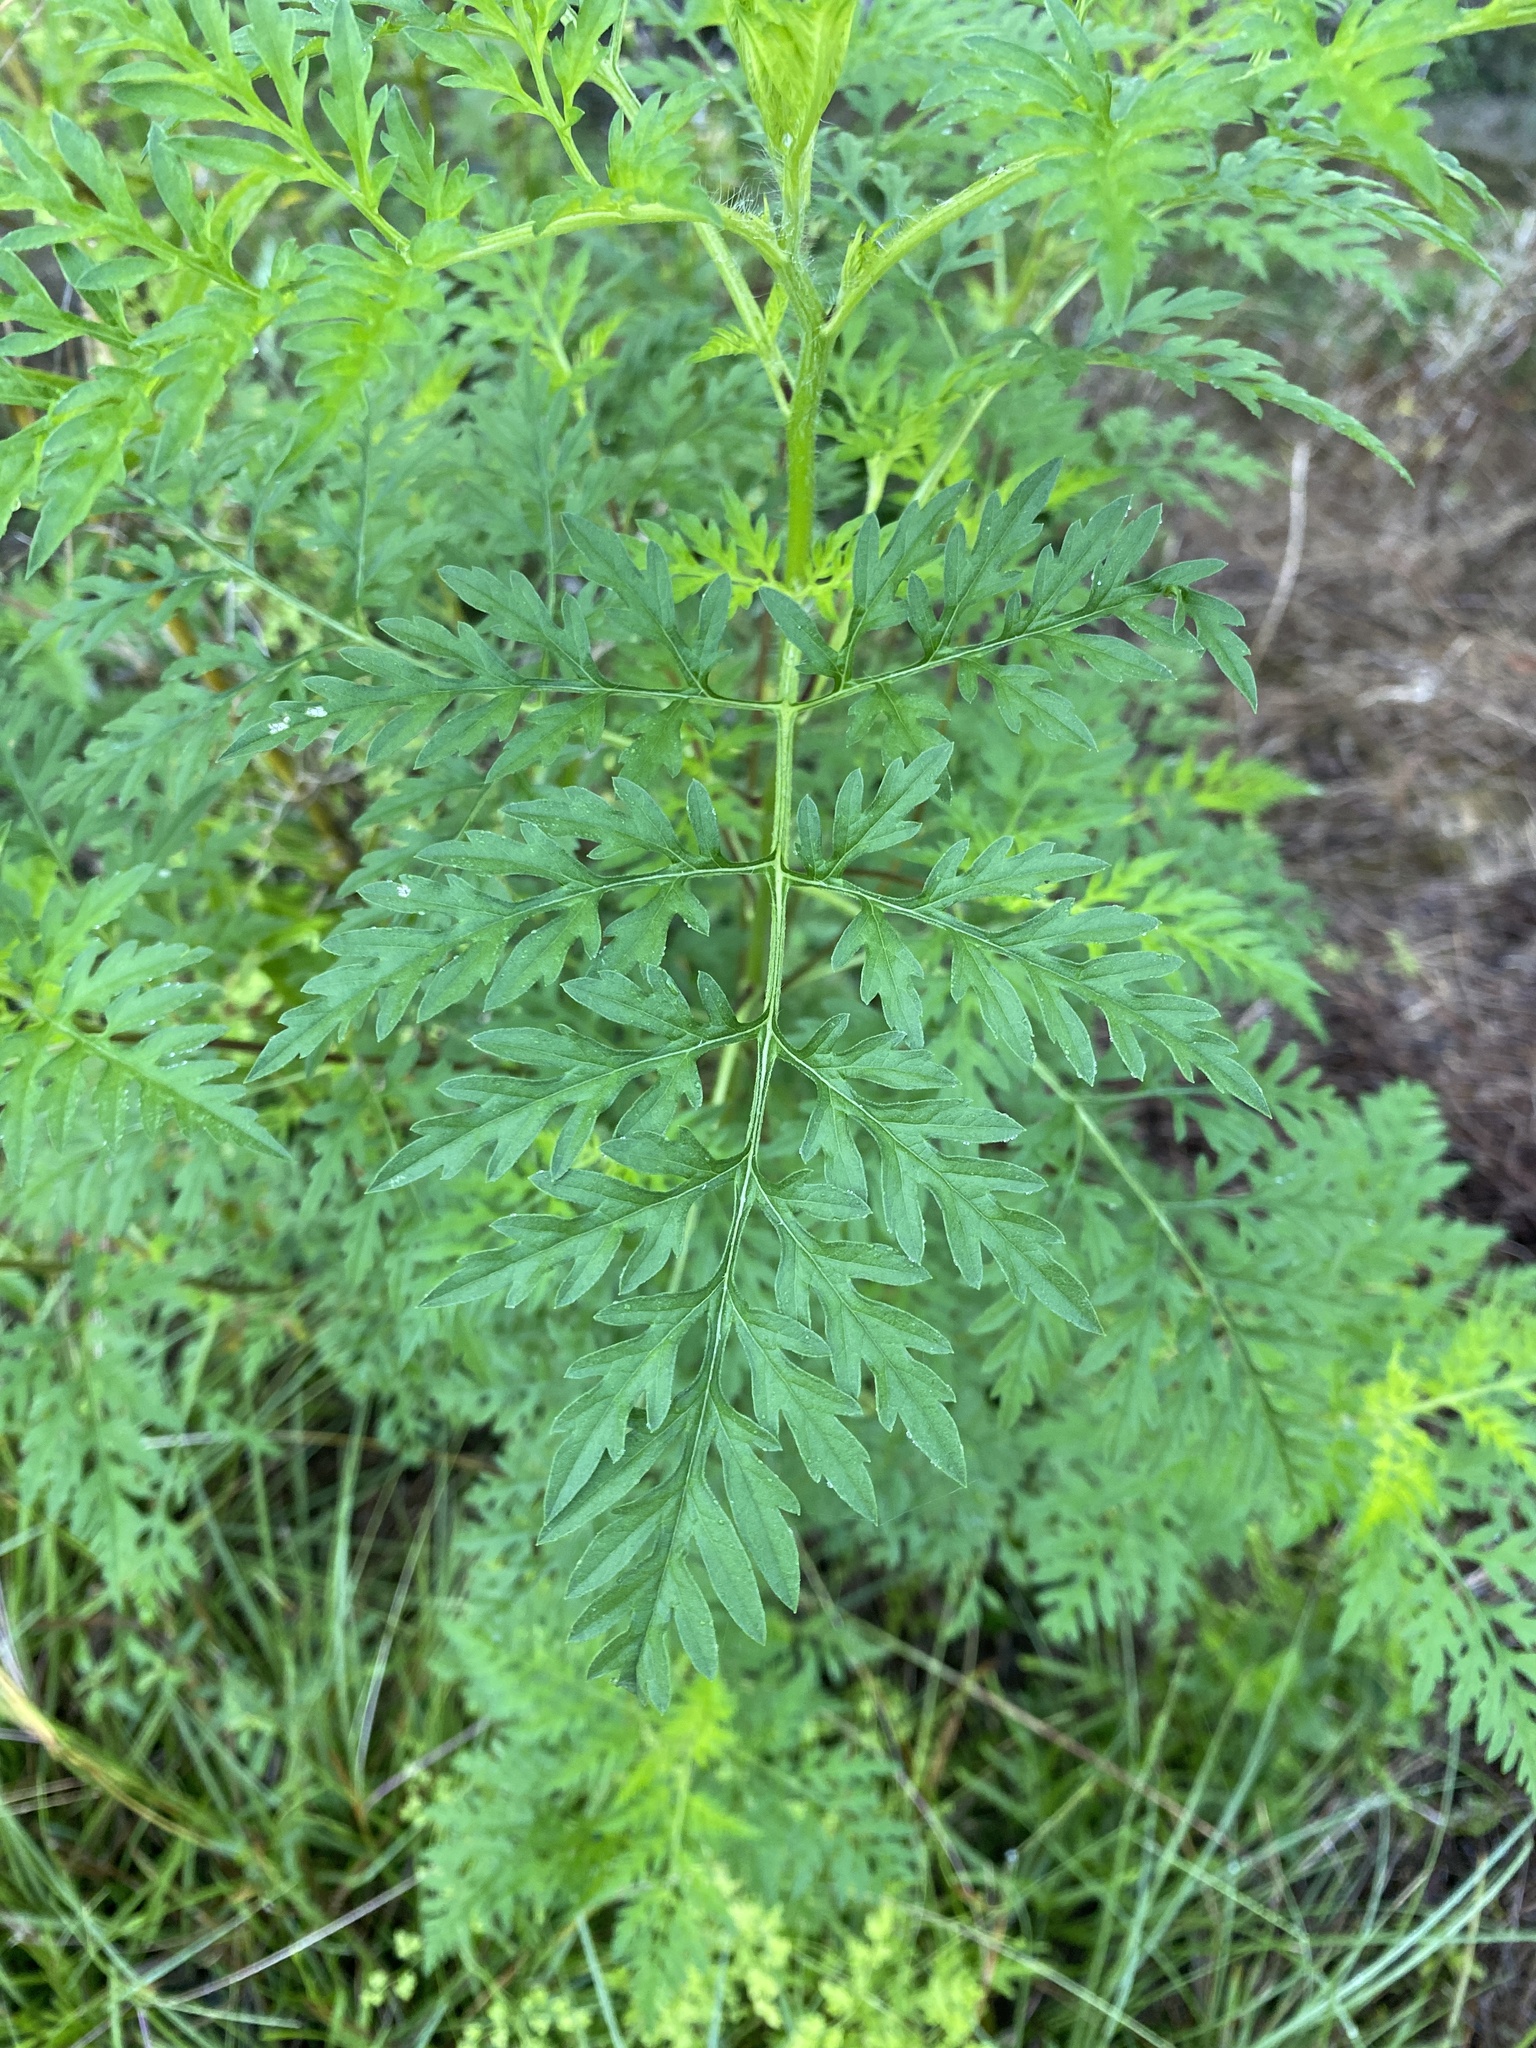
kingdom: Plantae
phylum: Tracheophyta
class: Magnoliopsida
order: Asterales
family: Asteraceae
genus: Ambrosia
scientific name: Ambrosia artemisiifolia
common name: Annual ragweed
